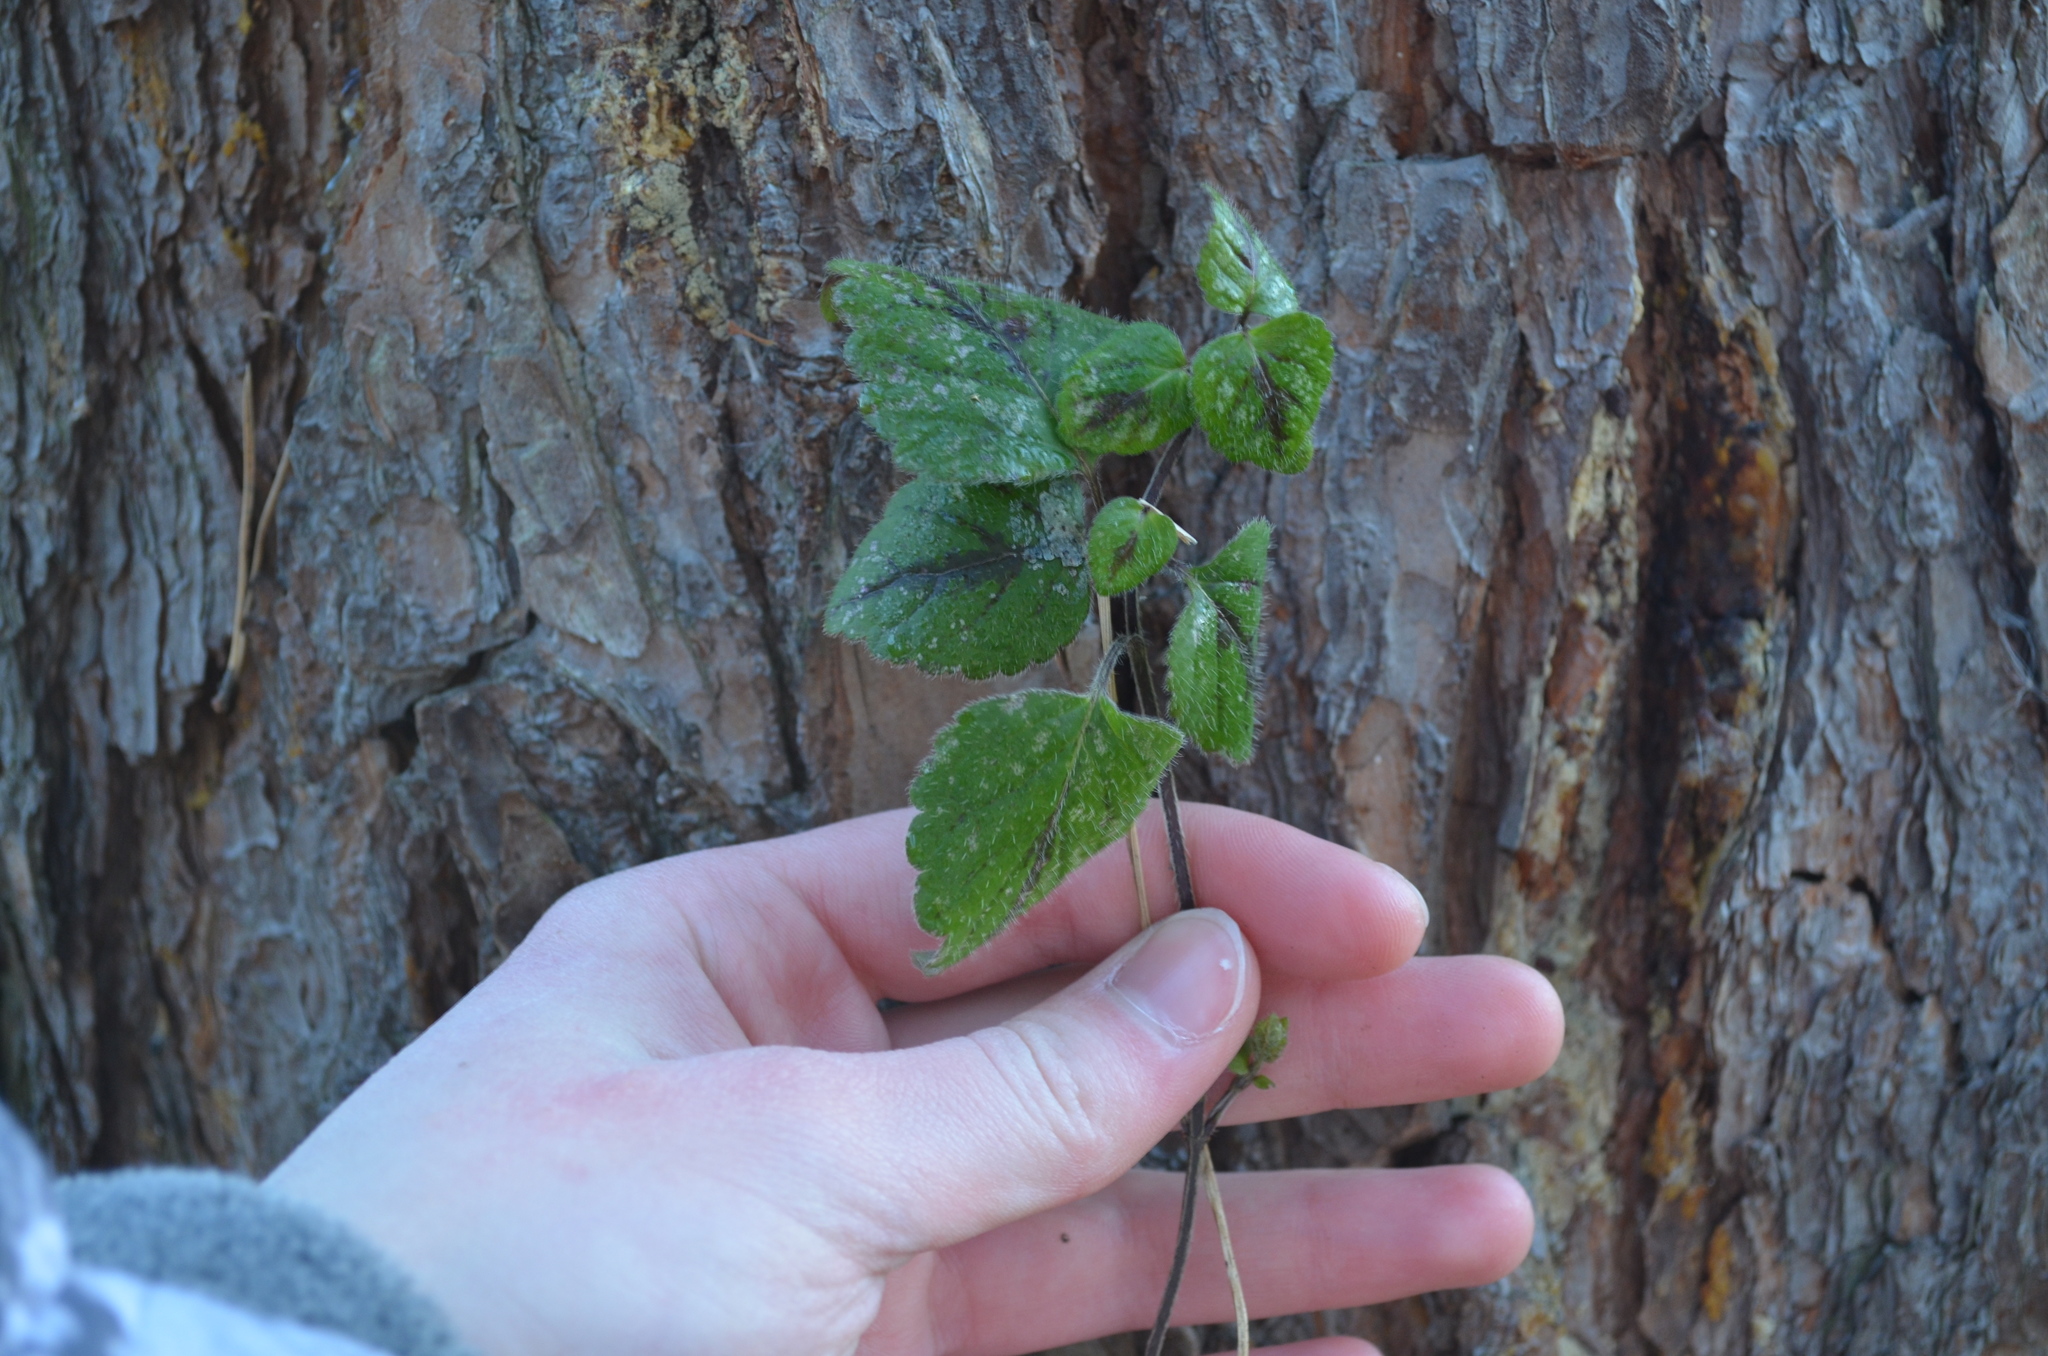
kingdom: Plantae
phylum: Tracheophyta
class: Magnoliopsida
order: Lamiales
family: Lamiaceae
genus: Lamium
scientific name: Lamium galeobdolon
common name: Yellow archangel
